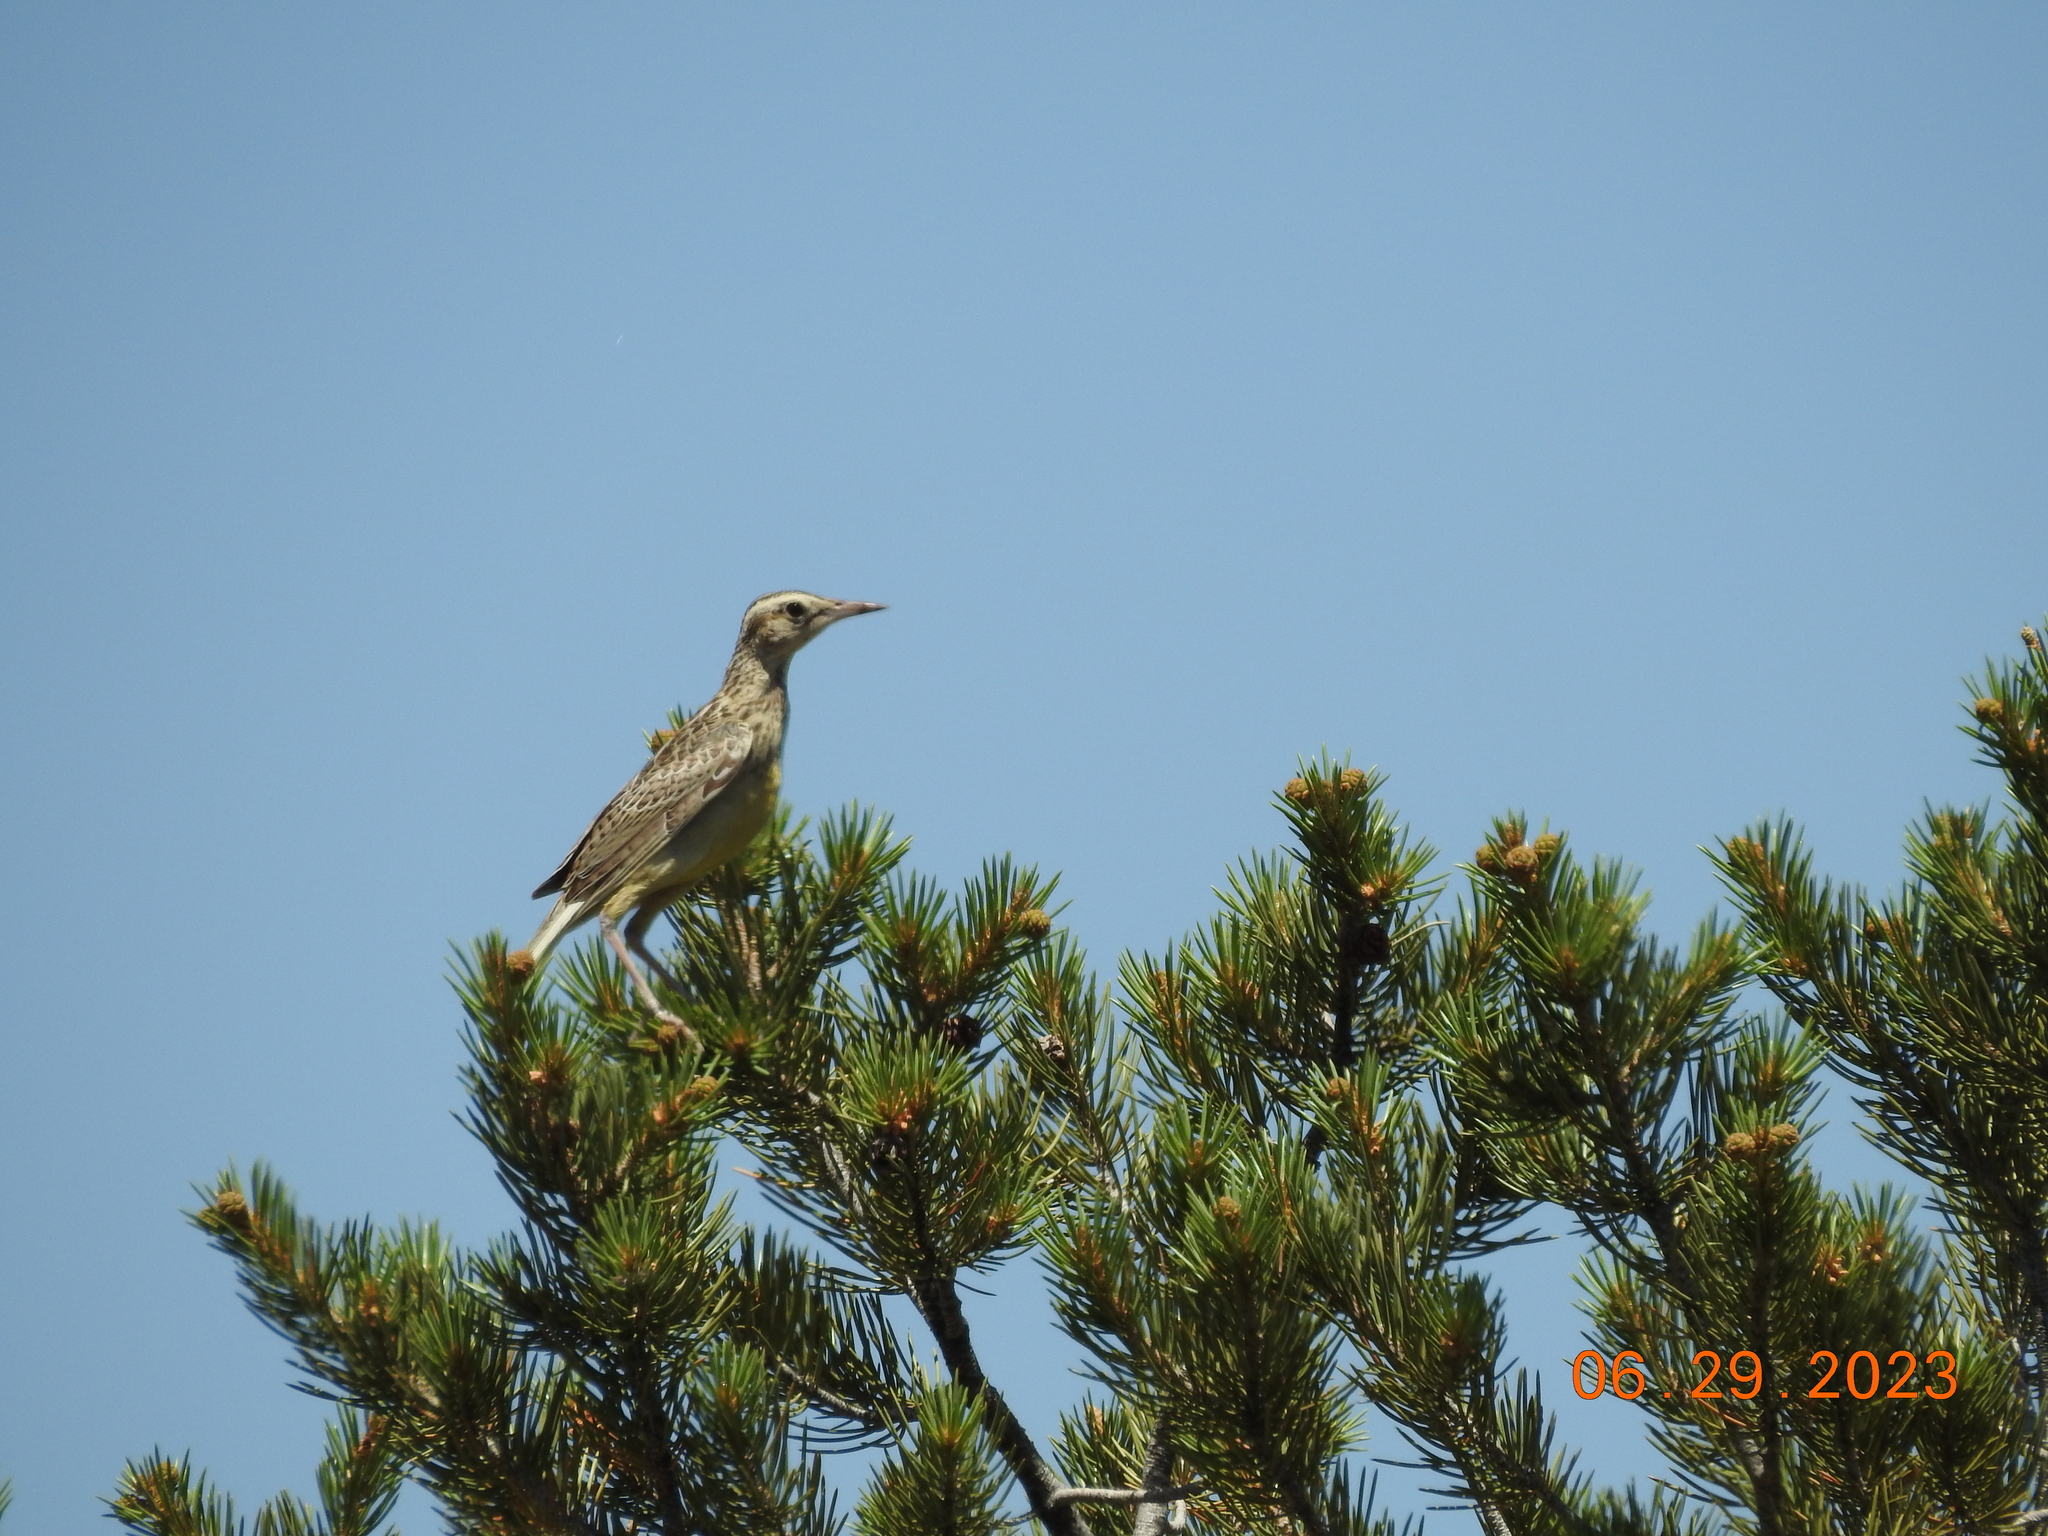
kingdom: Animalia
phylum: Chordata
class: Aves
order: Passeriformes
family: Icteridae
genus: Sturnella
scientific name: Sturnella neglecta
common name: Western meadowlark
